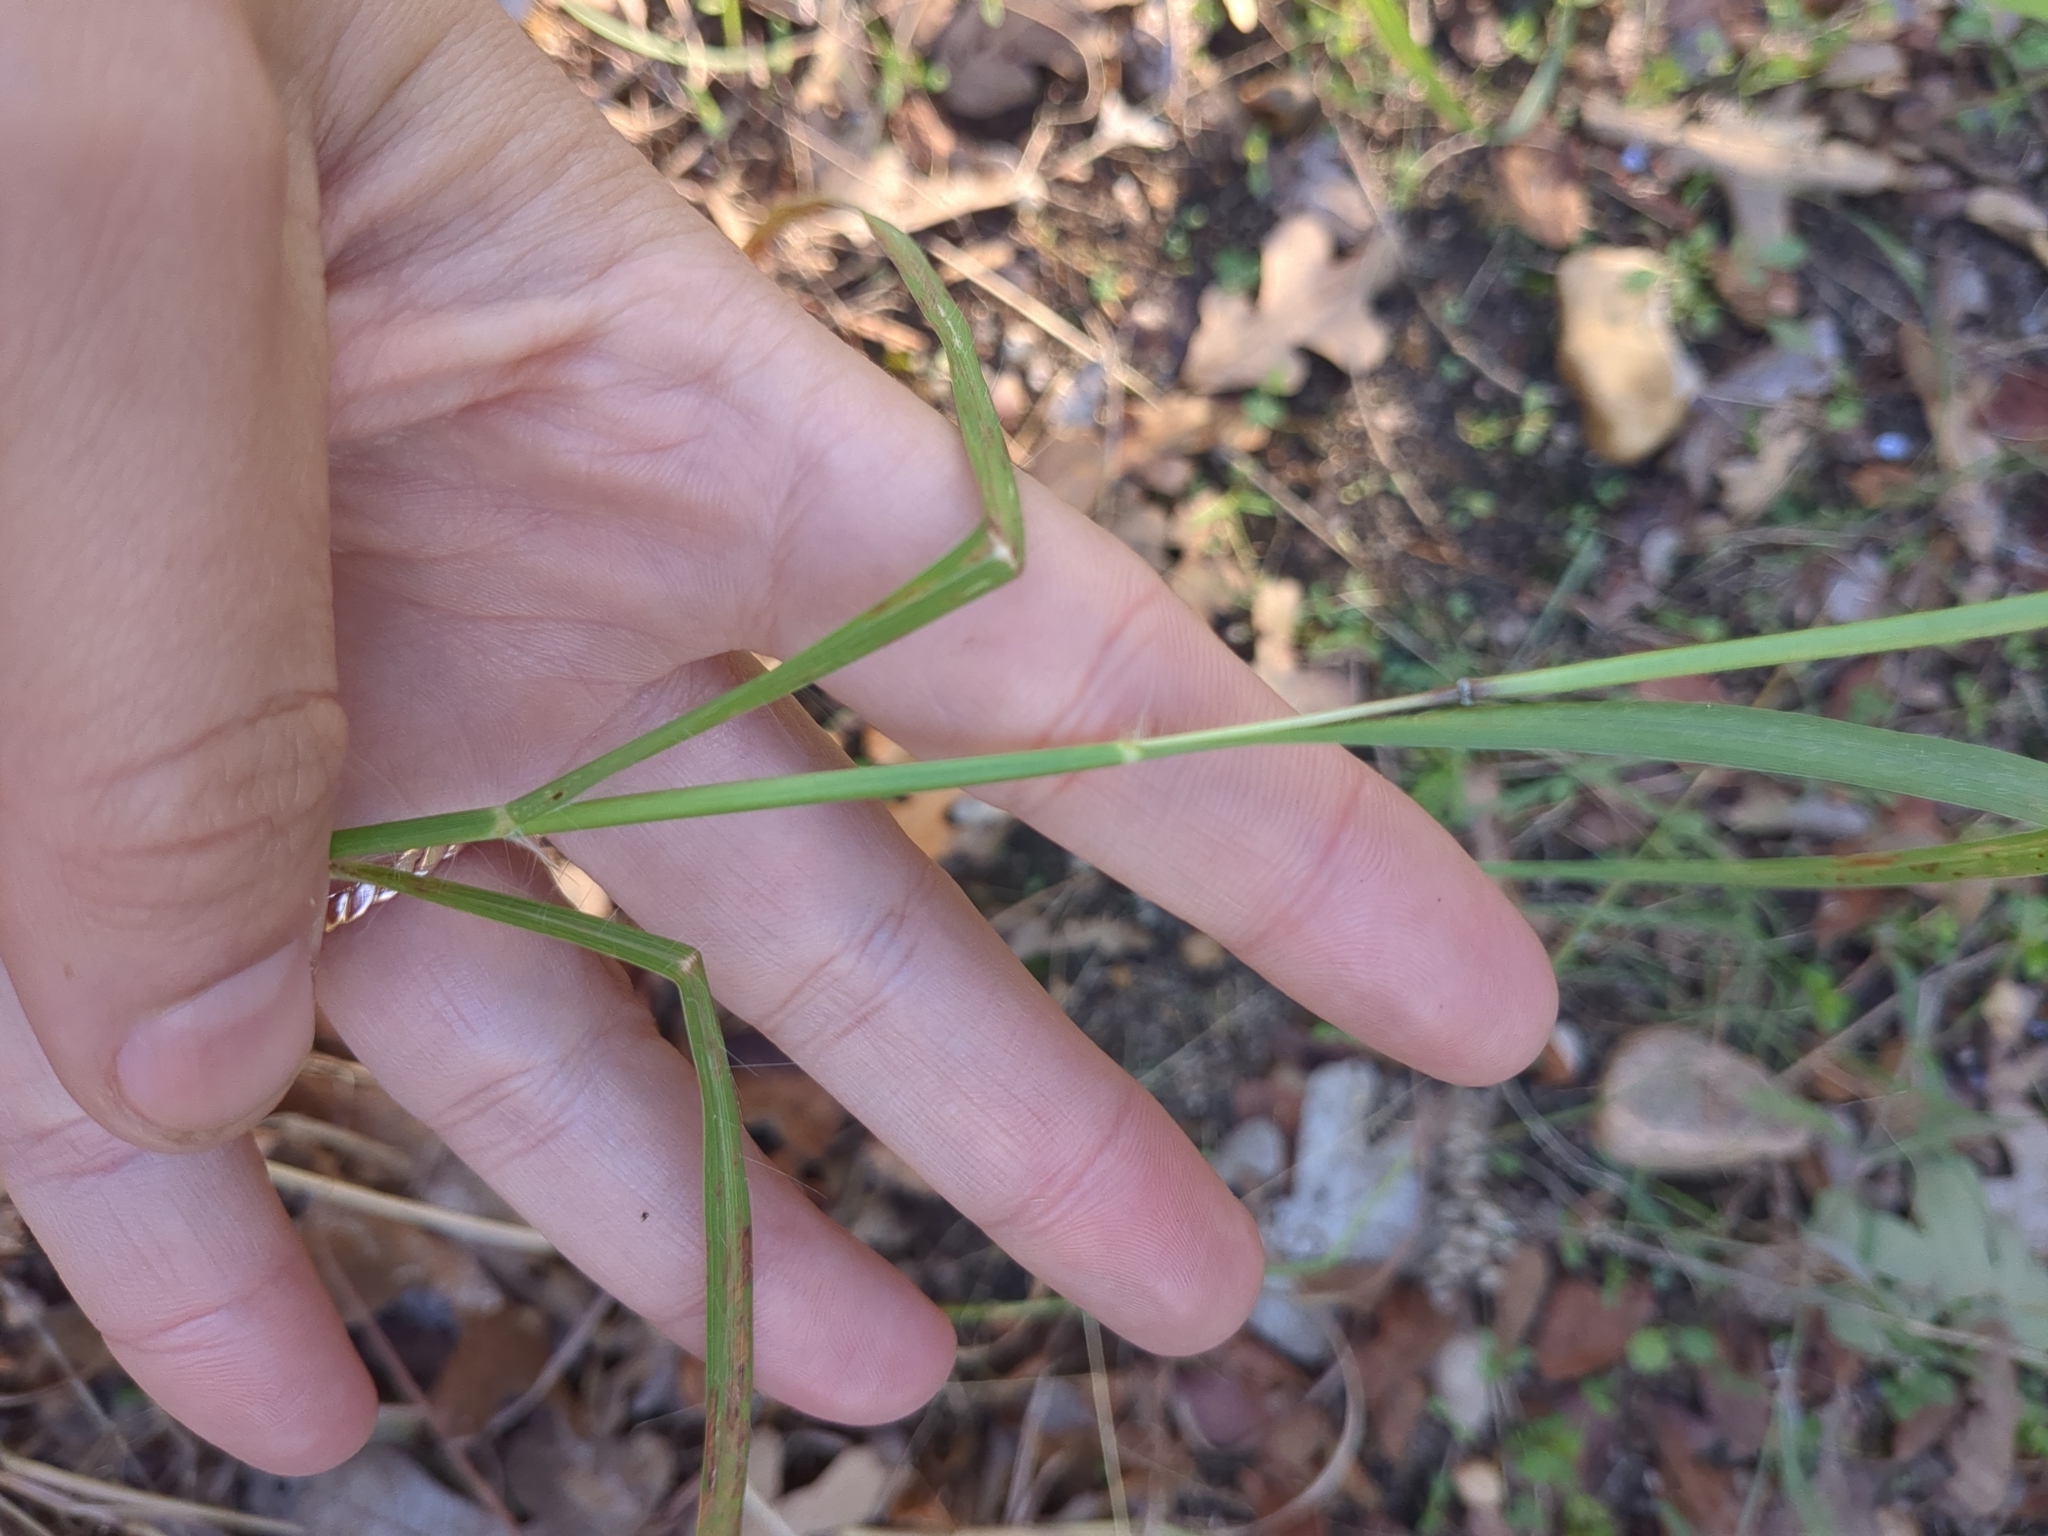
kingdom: Plantae
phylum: Tracheophyta
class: Liliopsida
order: Poales
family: Poaceae
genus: Bothriochloa
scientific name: Bothriochloa ischaemum
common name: Yellow bluestem
